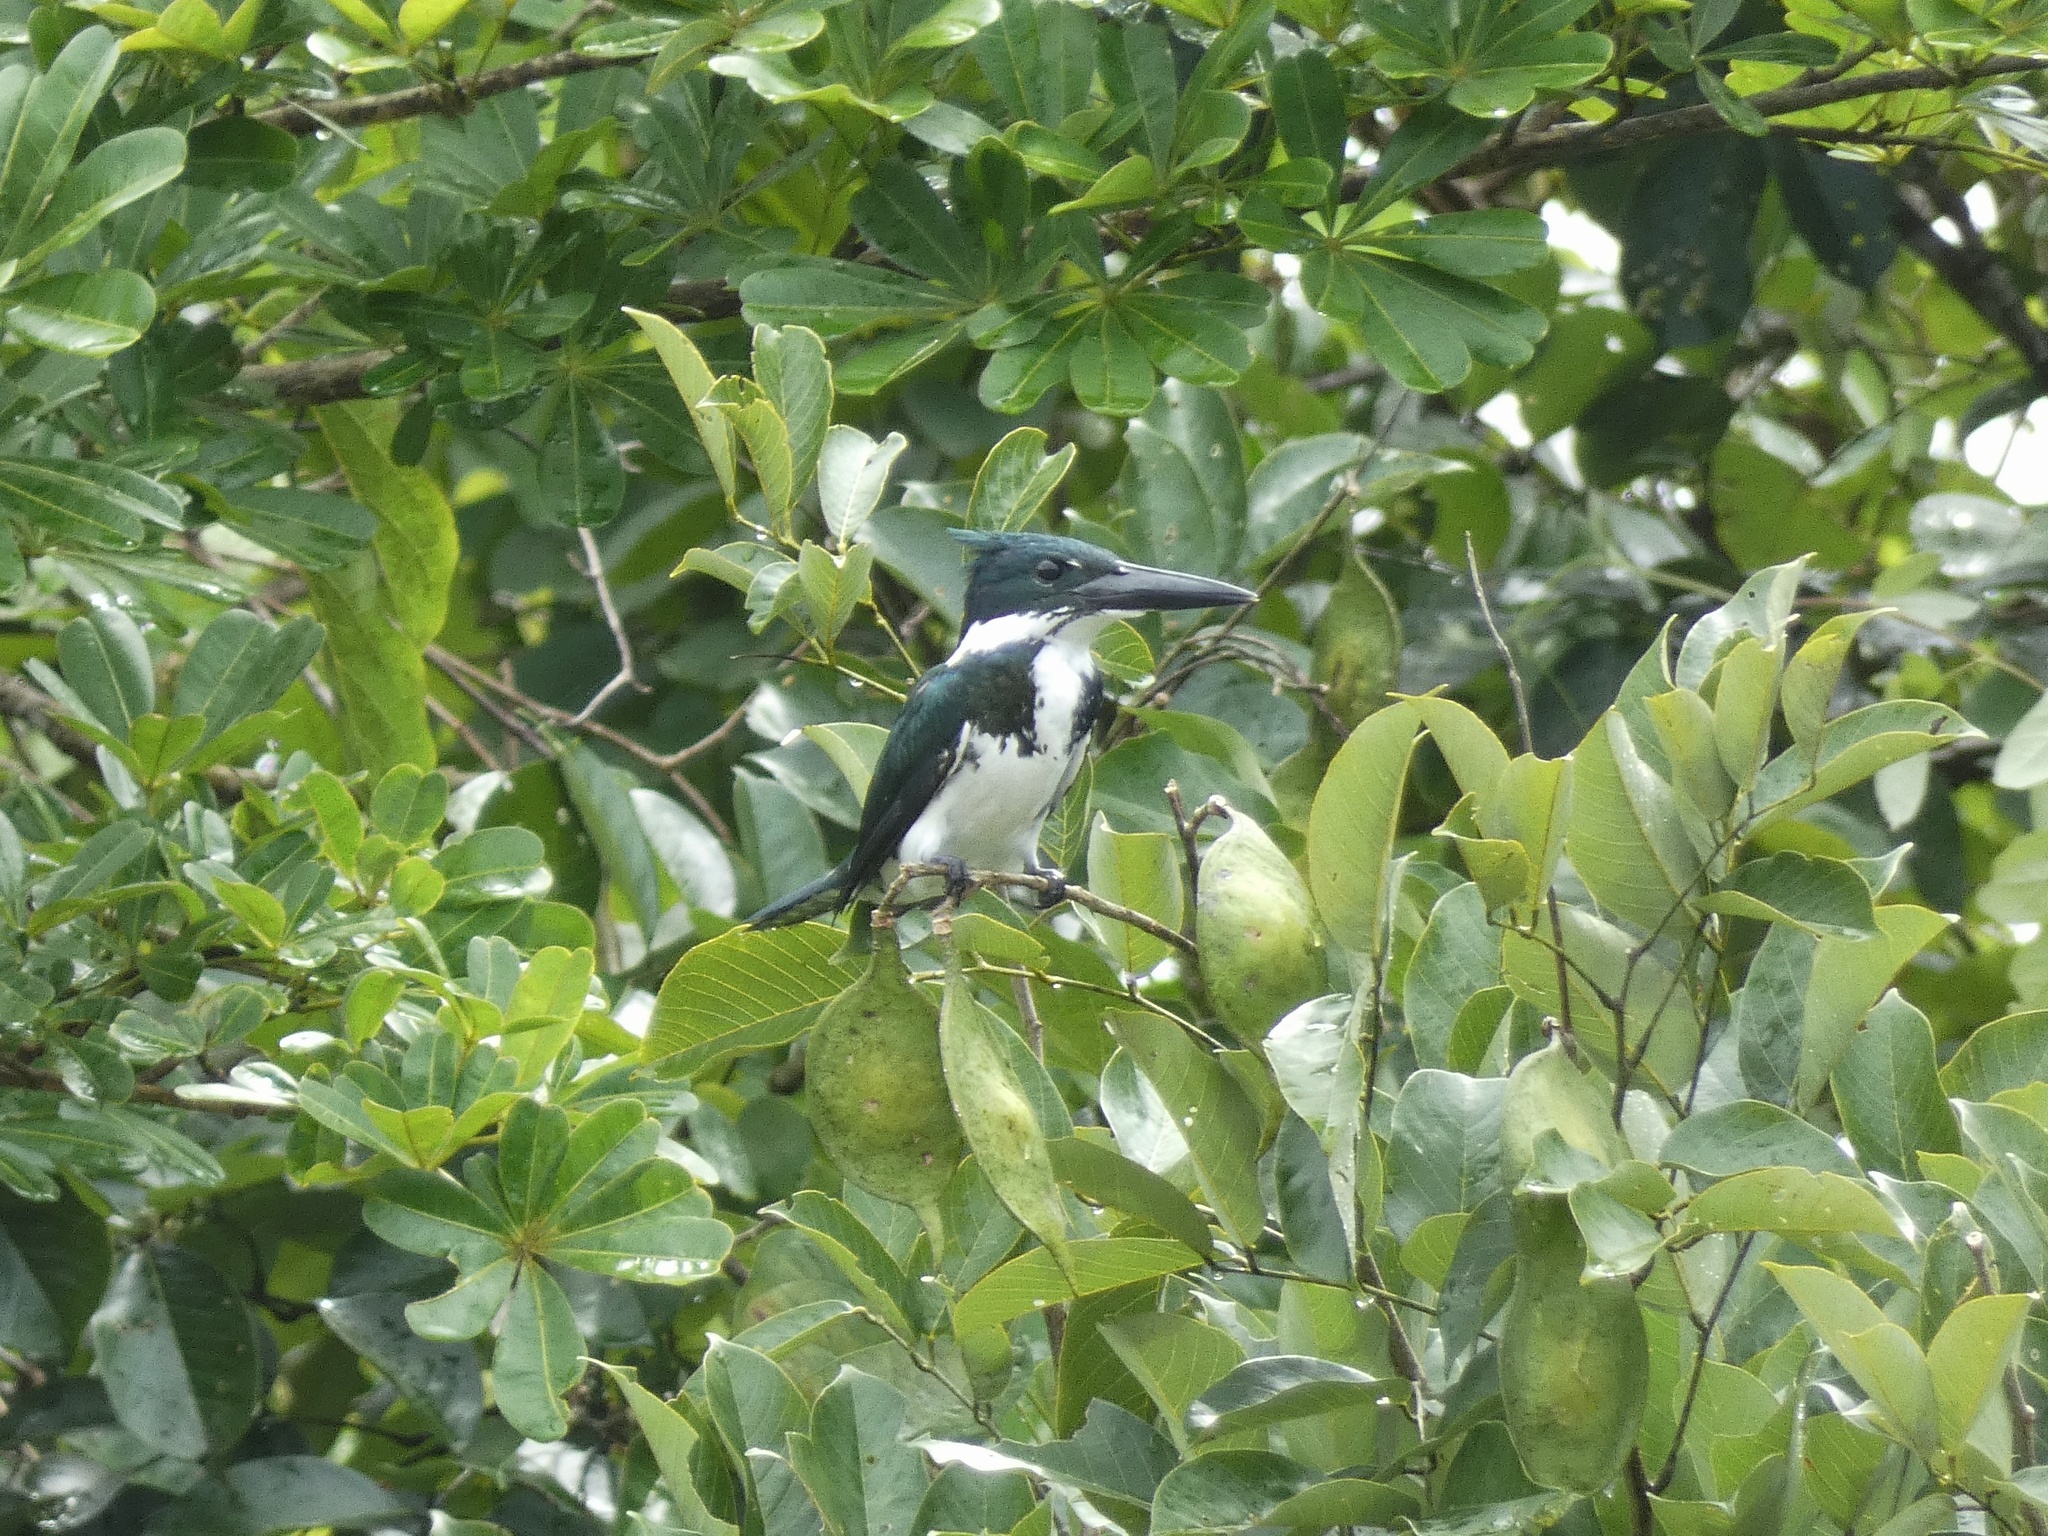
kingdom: Animalia
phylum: Chordata
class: Aves
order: Coraciiformes
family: Alcedinidae
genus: Chloroceryle
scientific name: Chloroceryle amazona
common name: Amazon kingfisher
